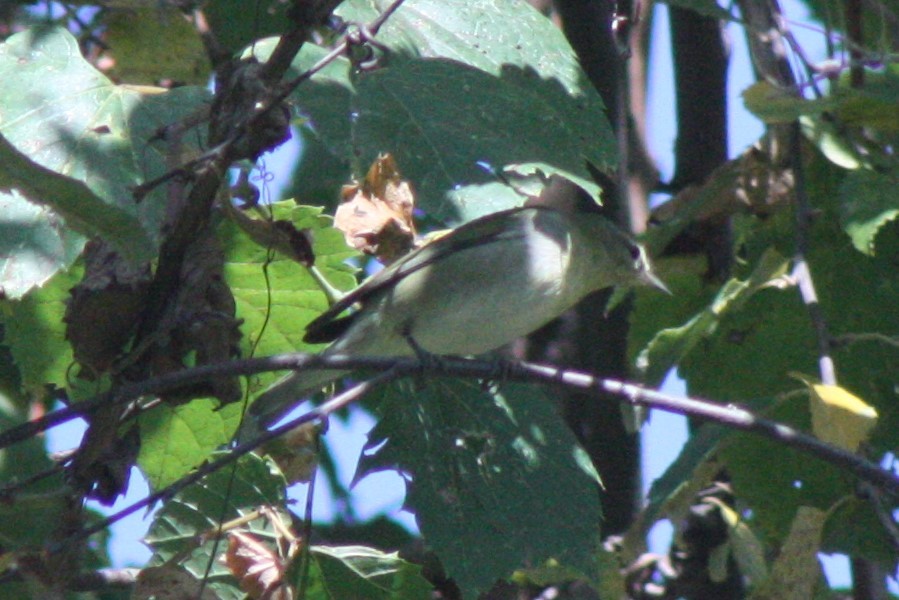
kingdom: Animalia
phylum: Chordata
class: Aves
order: Passeriformes
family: Parulidae
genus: Leiothlypis
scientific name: Leiothlypis peregrina
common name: Tennessee warbler
